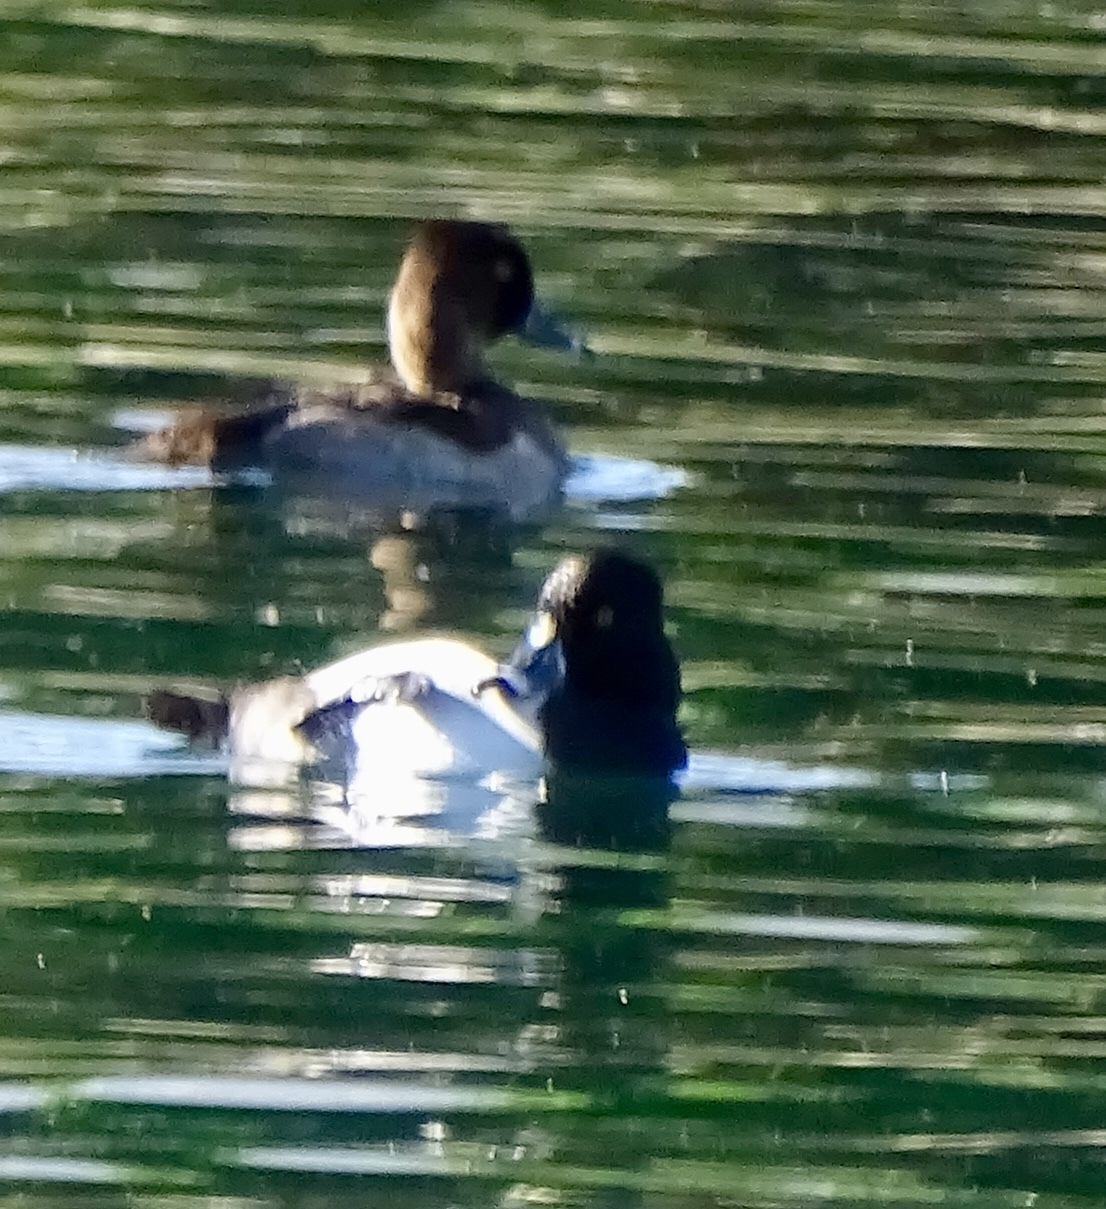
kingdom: Animalia
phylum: Chordata
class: Aves
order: Anseriformes
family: Anatidae
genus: Aythya
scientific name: Aythya collaris
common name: Ring-necked duck
